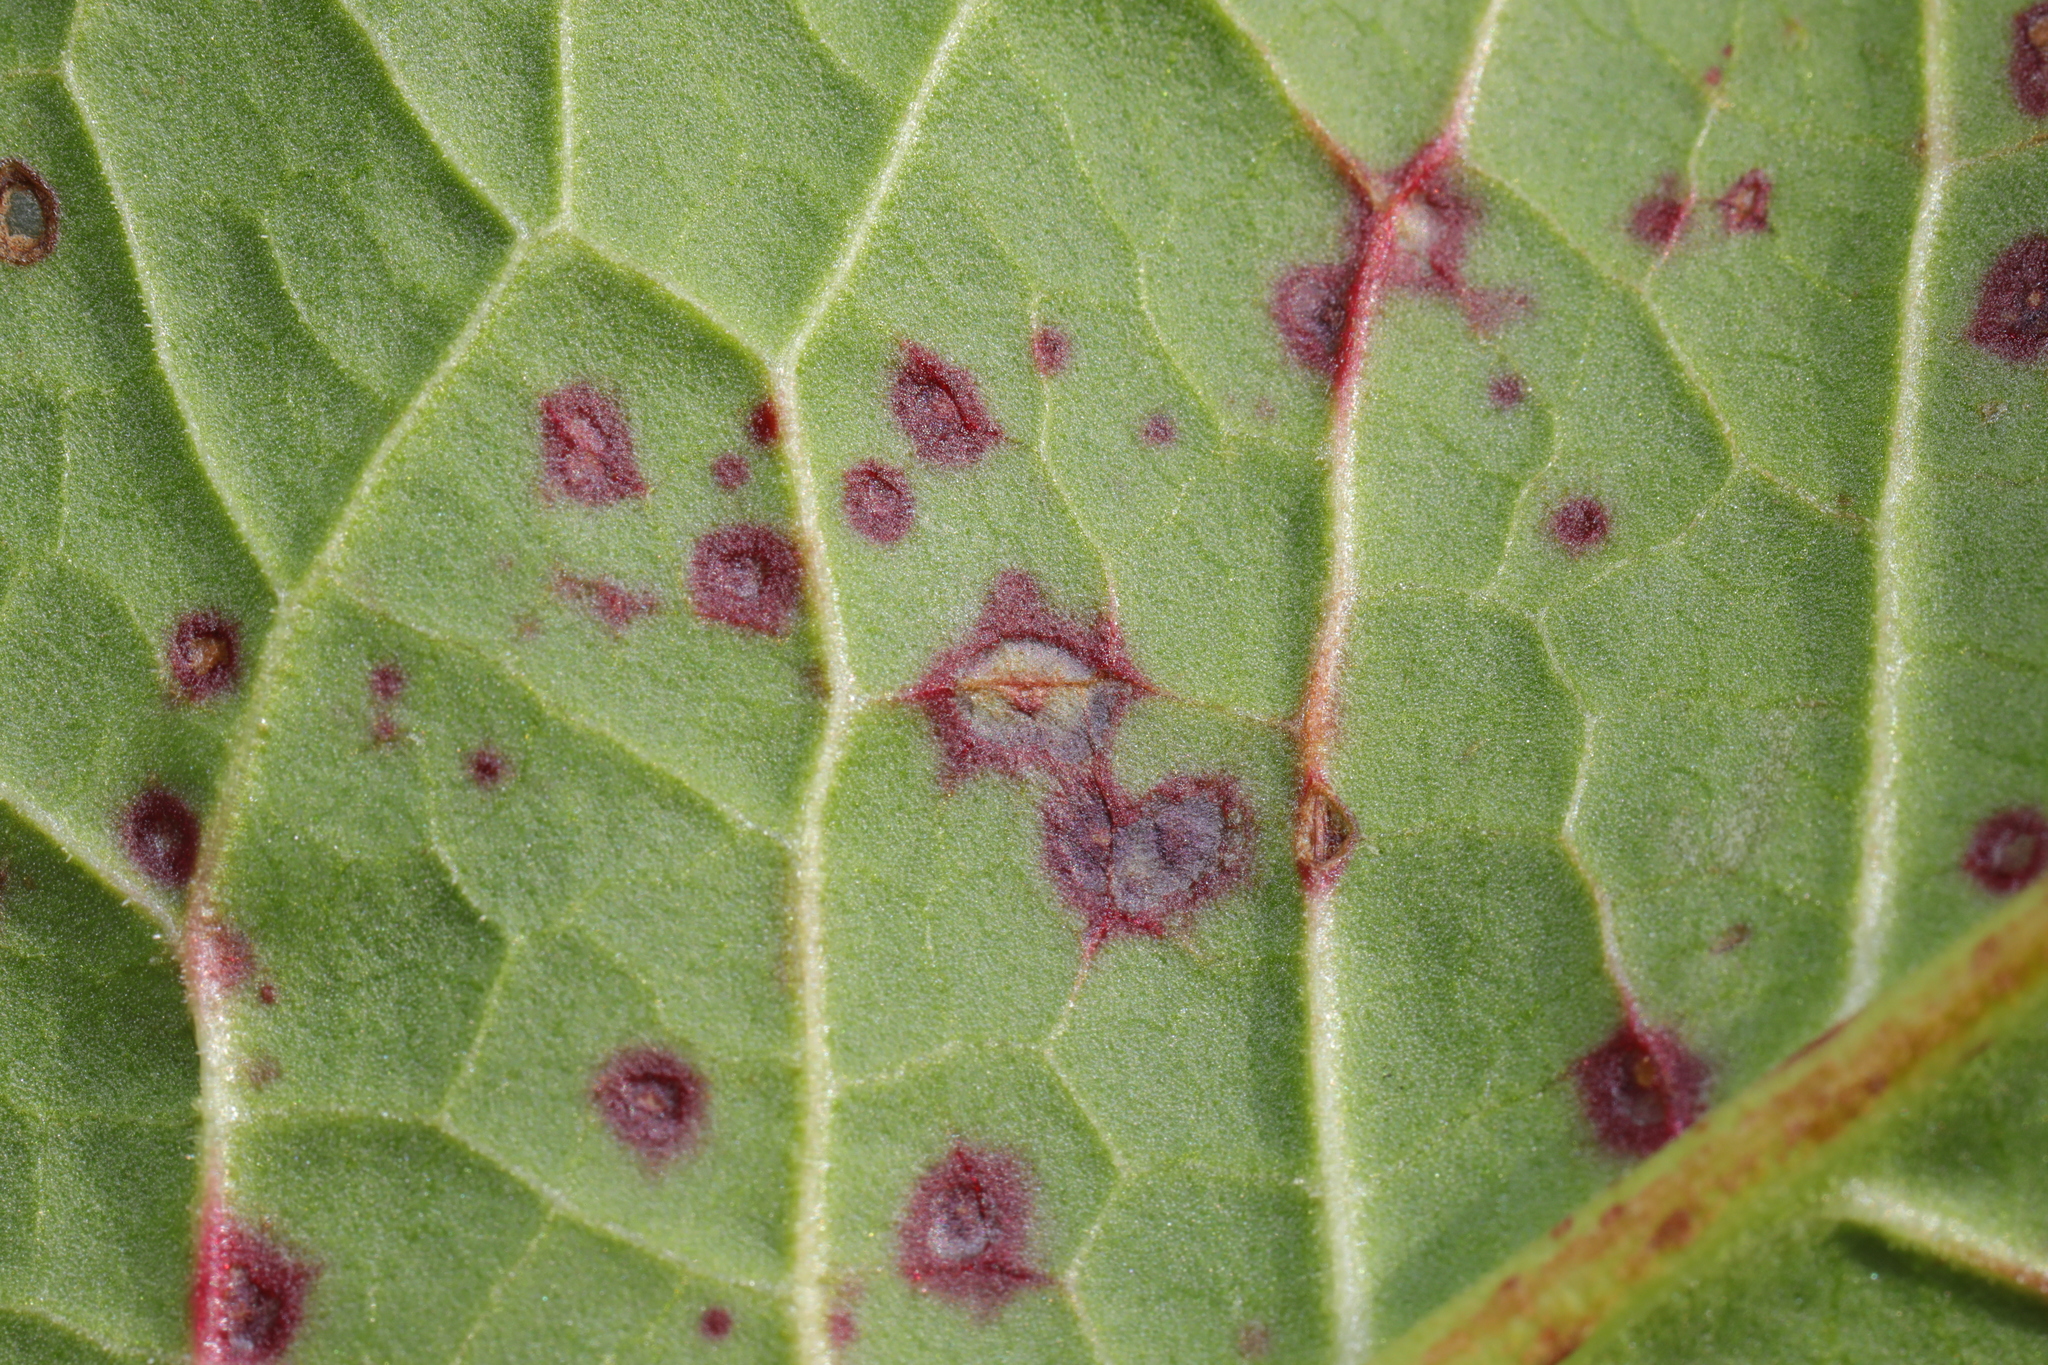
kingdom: Fungi
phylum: Ascomycota
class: Dothideomycetes
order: Mycosphaerellales
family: Mycosphaerellaceae
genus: Ramularia
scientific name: Ramularia rubella
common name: Red dock spot
